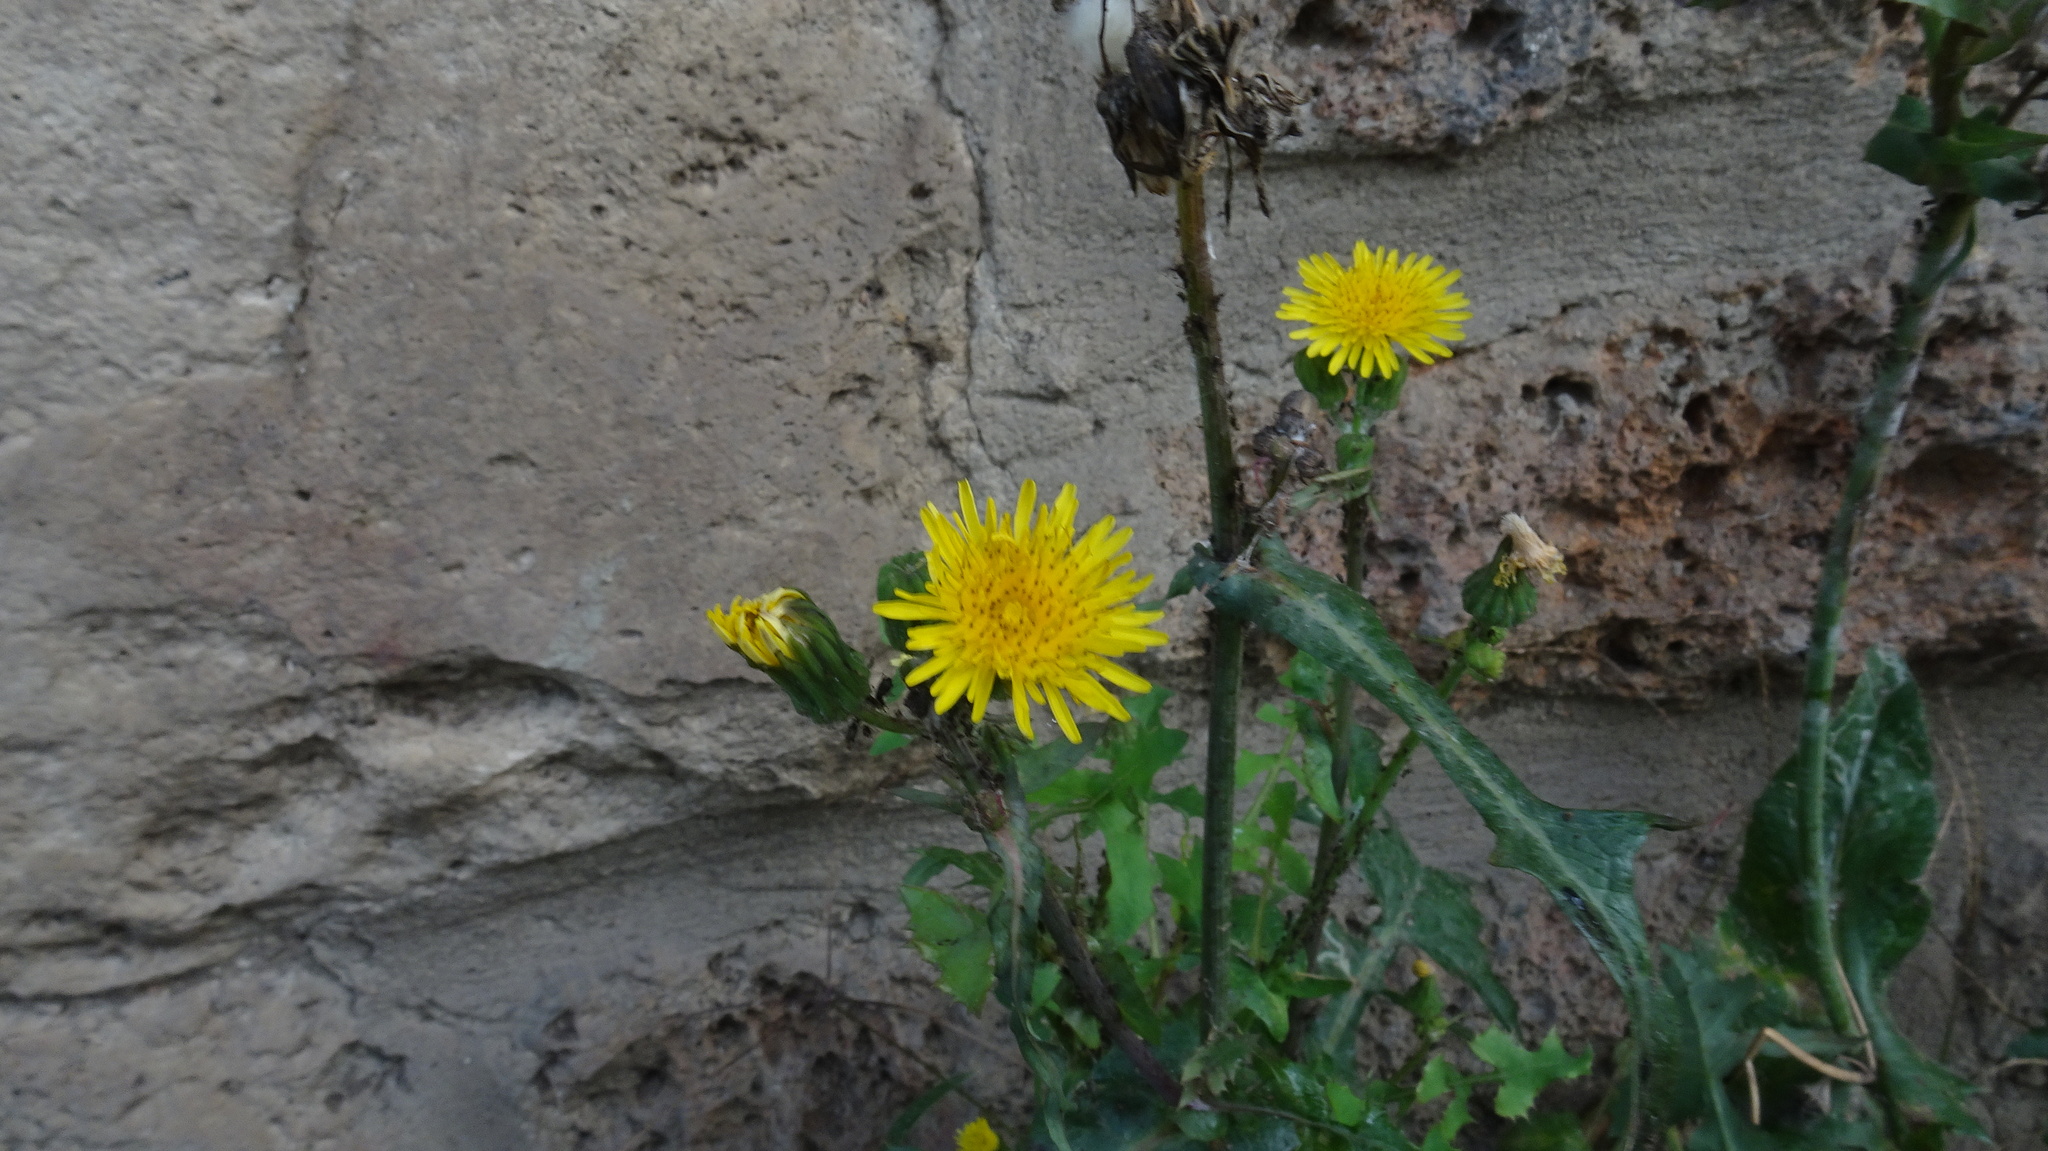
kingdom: Plantae
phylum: Tracheophyta
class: Magnoliopsida
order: Asterales
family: Asteraceae
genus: Sonchus
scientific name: Sonchus oleraceus
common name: Common sowthistle
